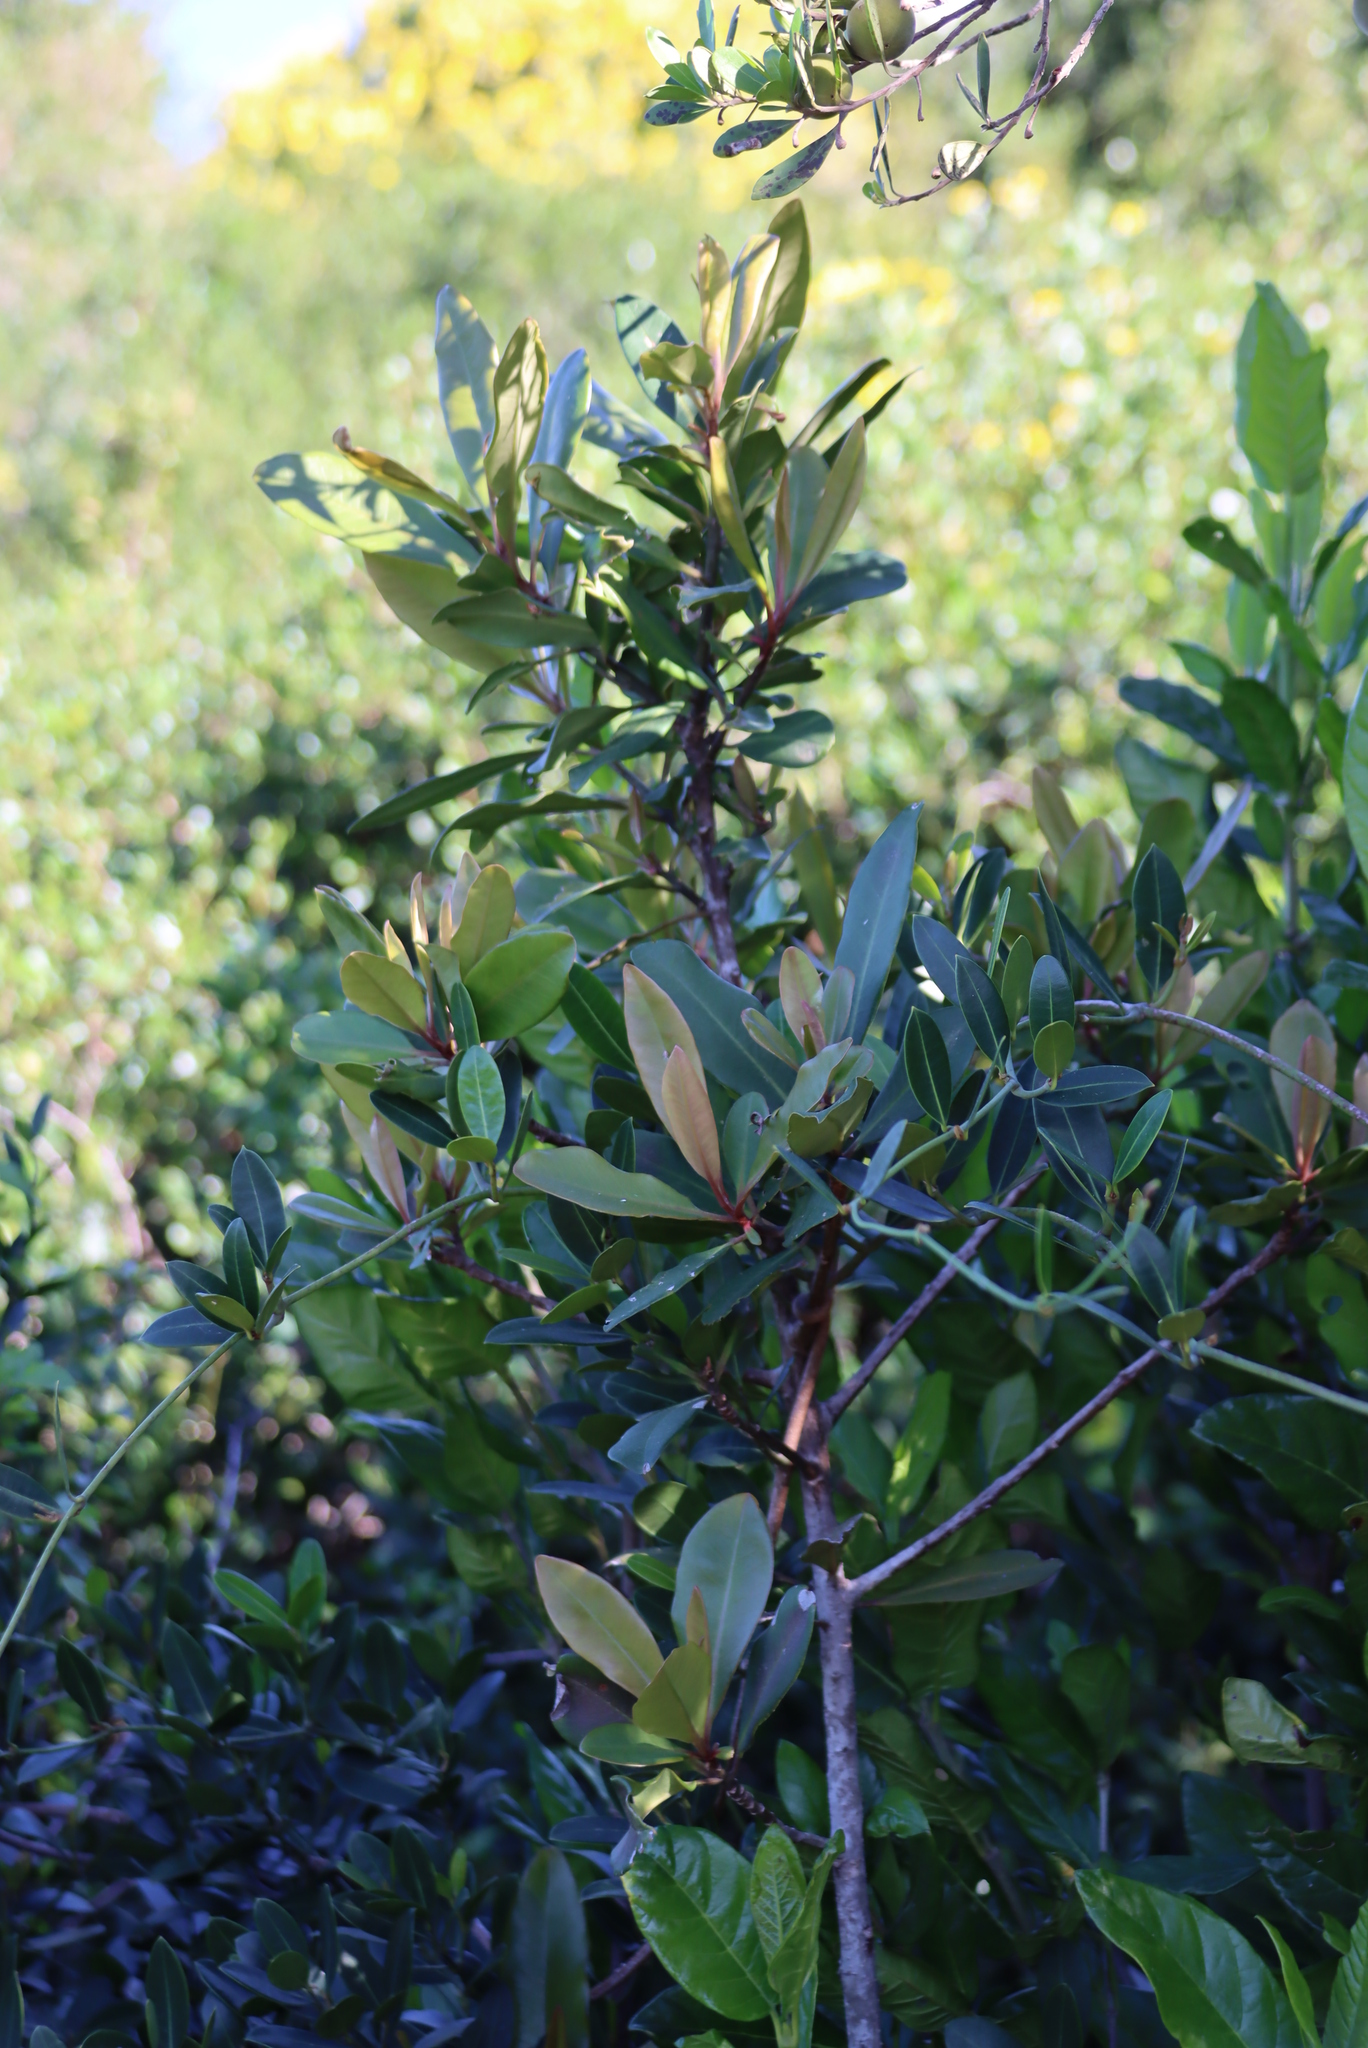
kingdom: Plantae
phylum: Tracheophyta
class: Magnoliopsida
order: Ericales
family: Primulaceae
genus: Myrsine
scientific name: Myrsine melanophloeos
